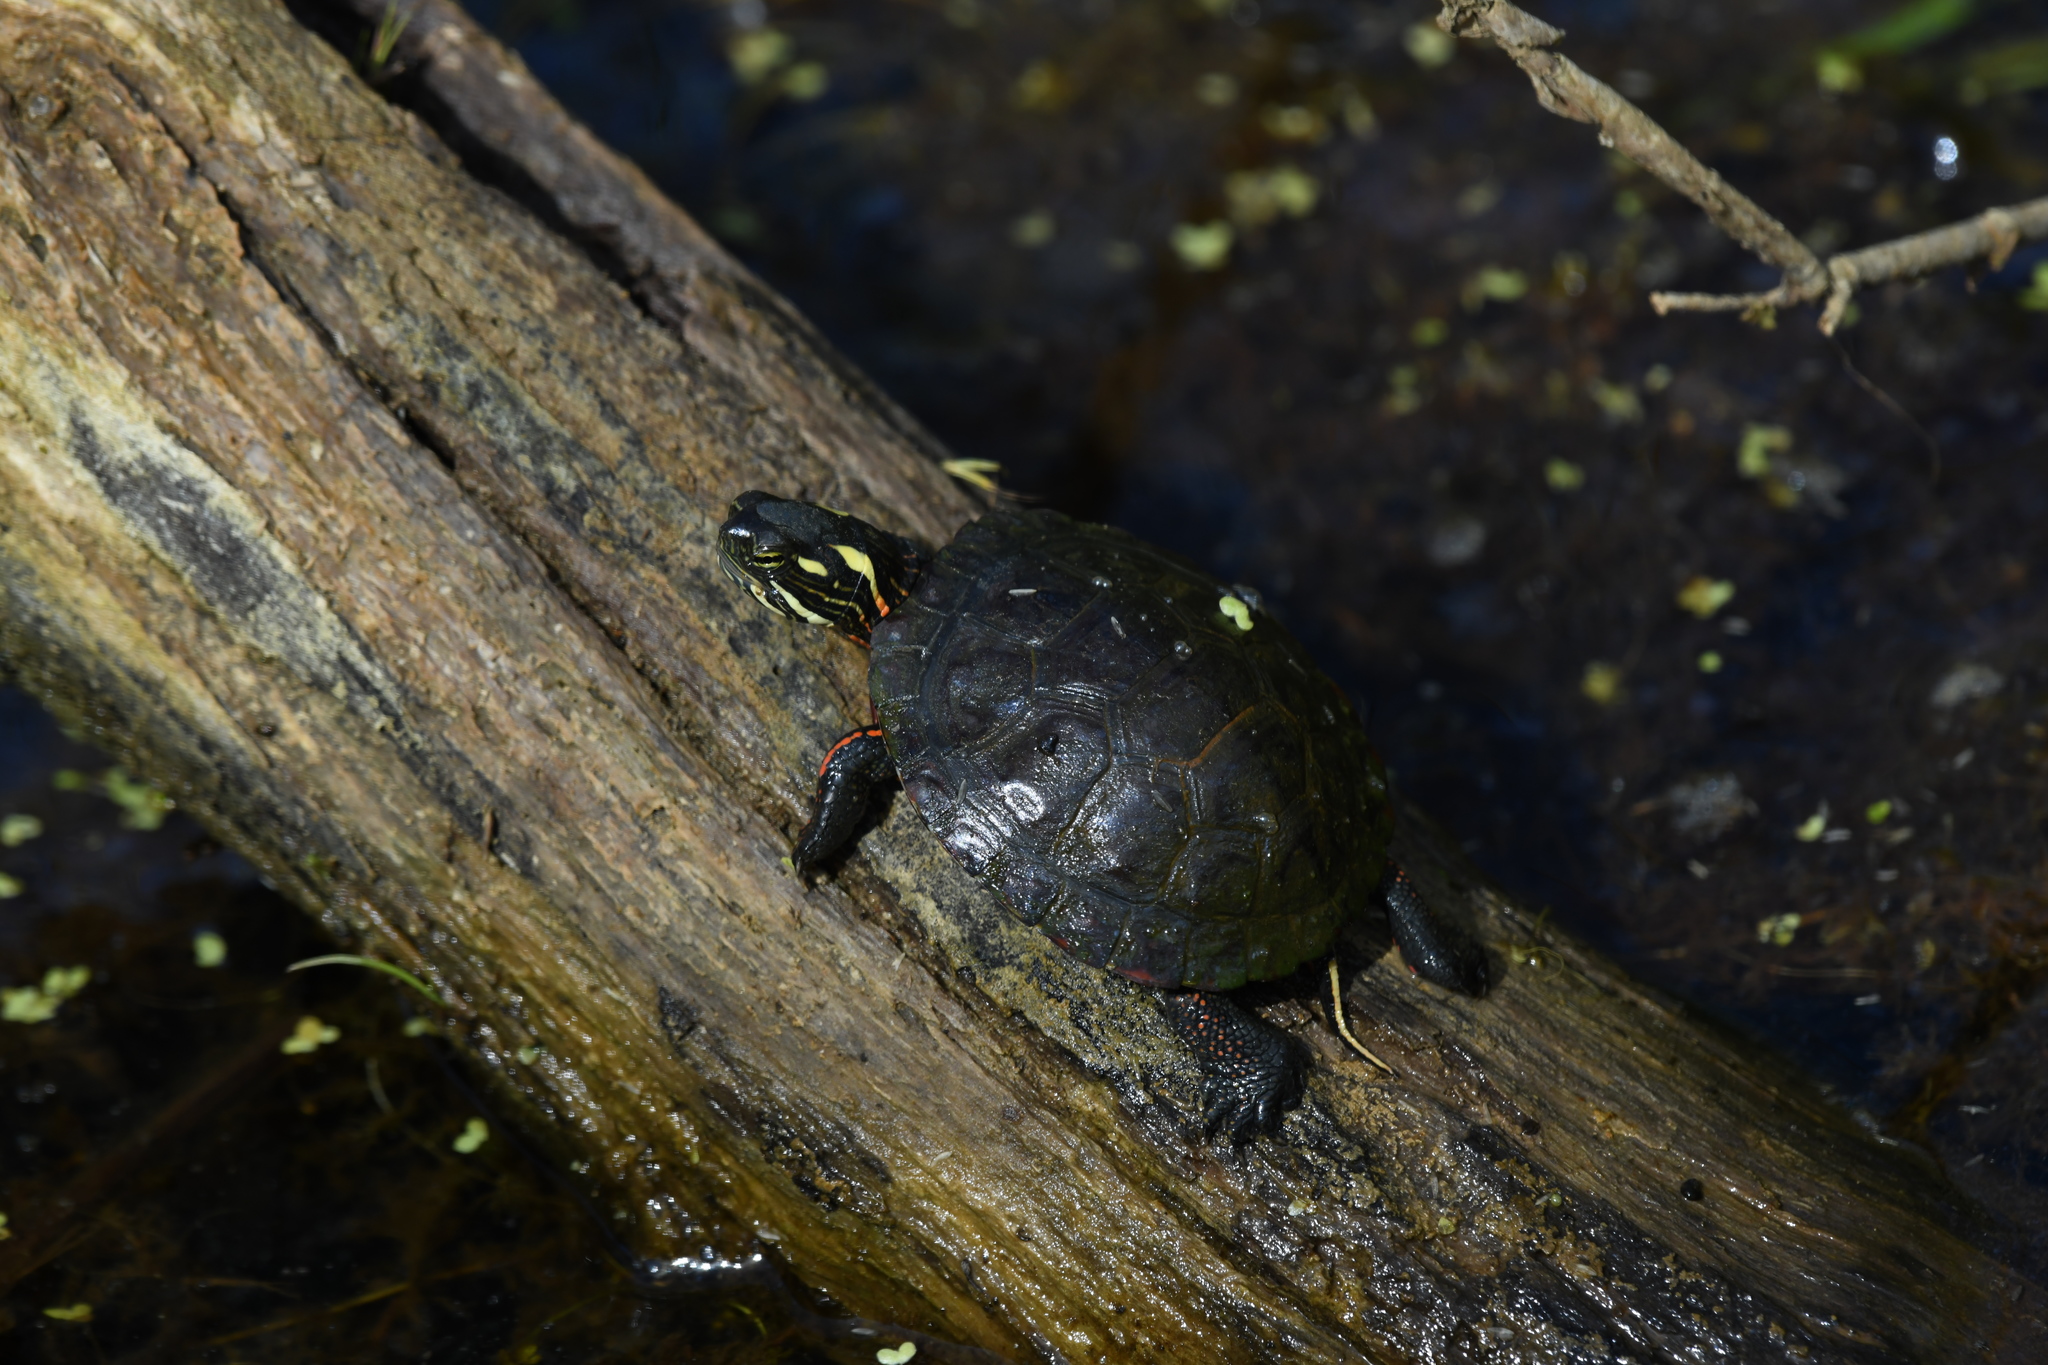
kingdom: Animalia
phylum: Chordata
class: Testudines
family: Emydidae
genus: Chrysemys
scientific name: Chrysemys picta
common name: Painted turtle
